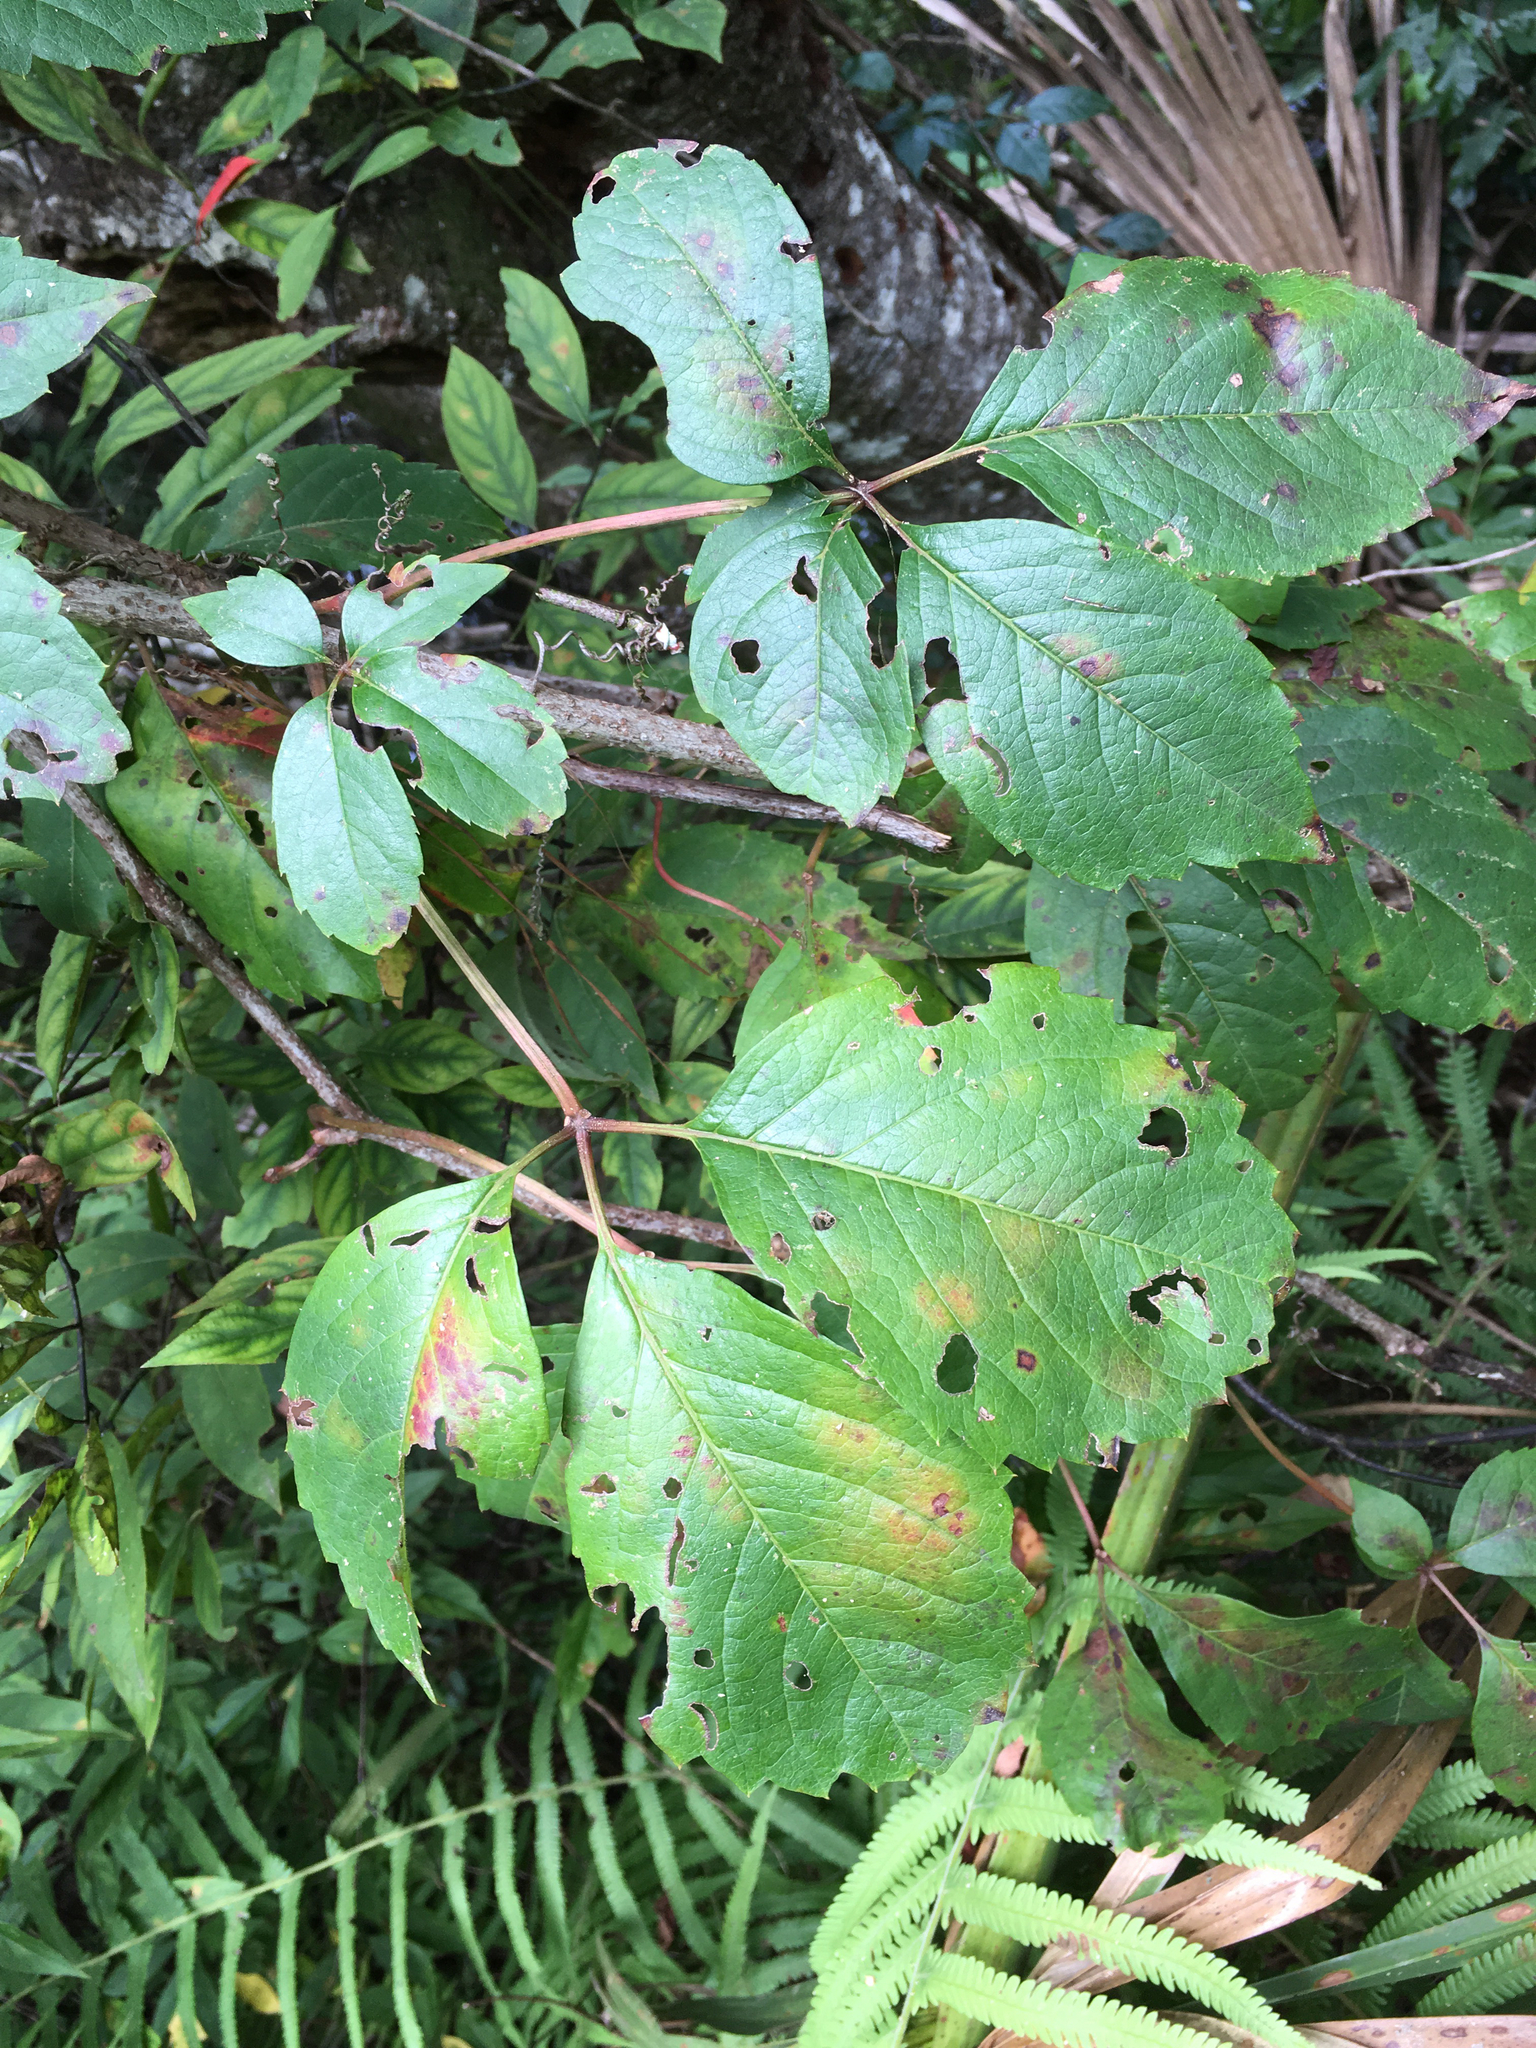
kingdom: Plantae
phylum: Tracheophyta
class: Magnoliopsida
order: Vitales
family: Vitaceae
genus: Parthenocissus
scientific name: Parthenocissus quinquefolia
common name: Virginia-creeper
